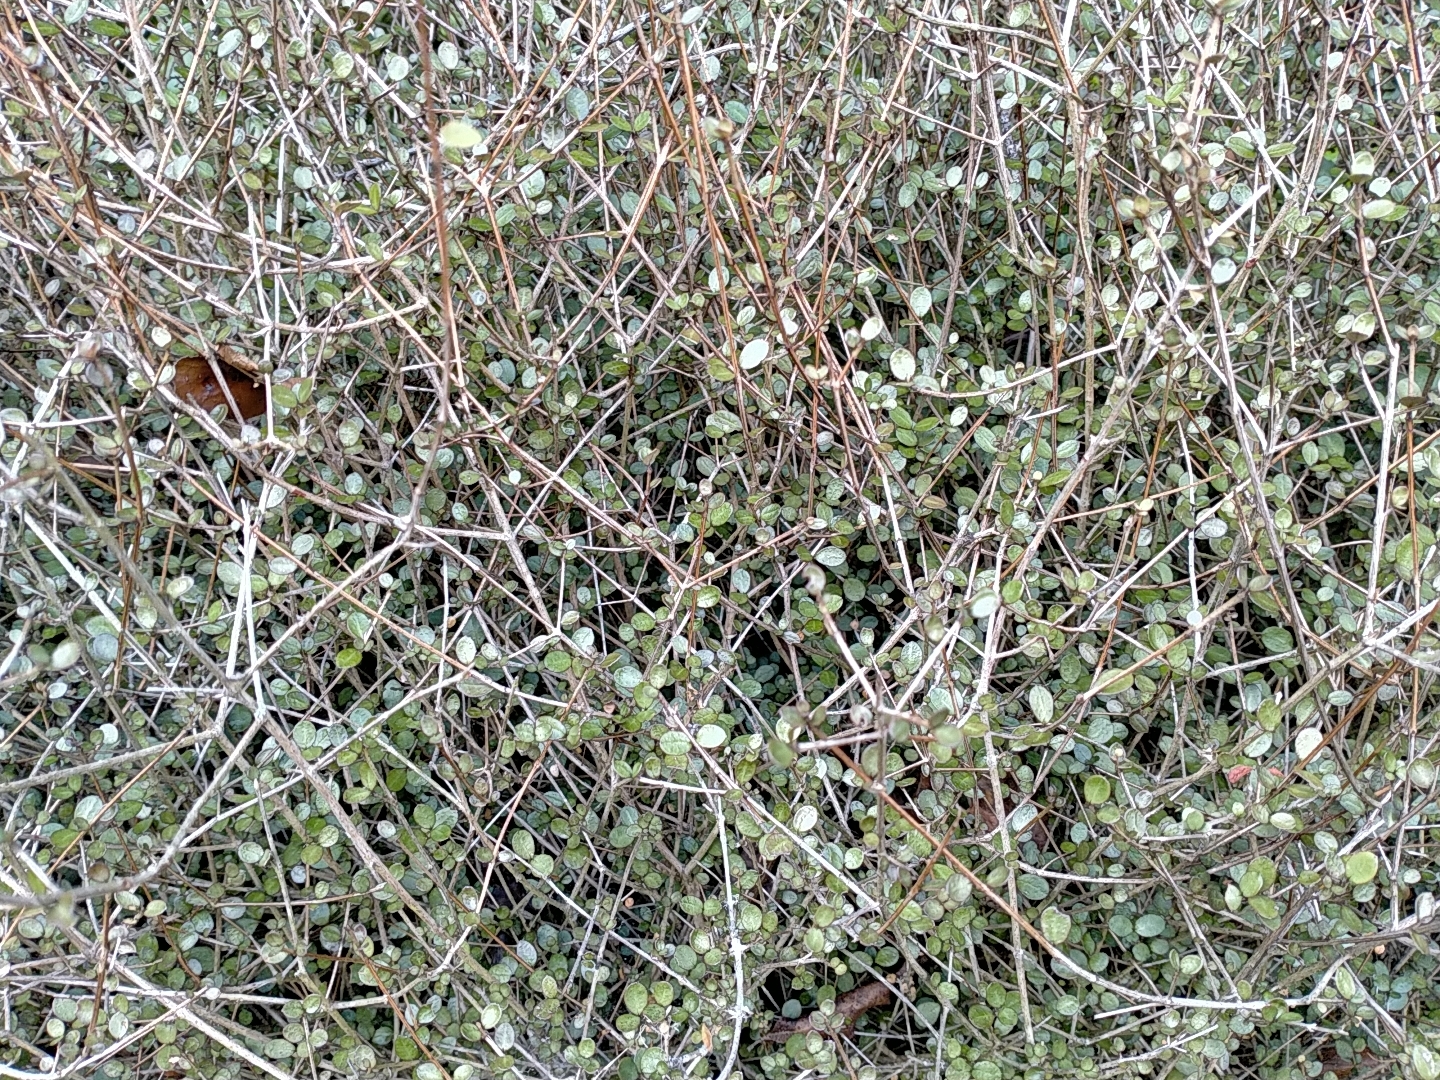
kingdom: Plantae
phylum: Tracheophyta
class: Magnoliopsida
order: Myrtales
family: Myrtaceae
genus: Neomyrtus
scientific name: Neomyrtus pedunculata
